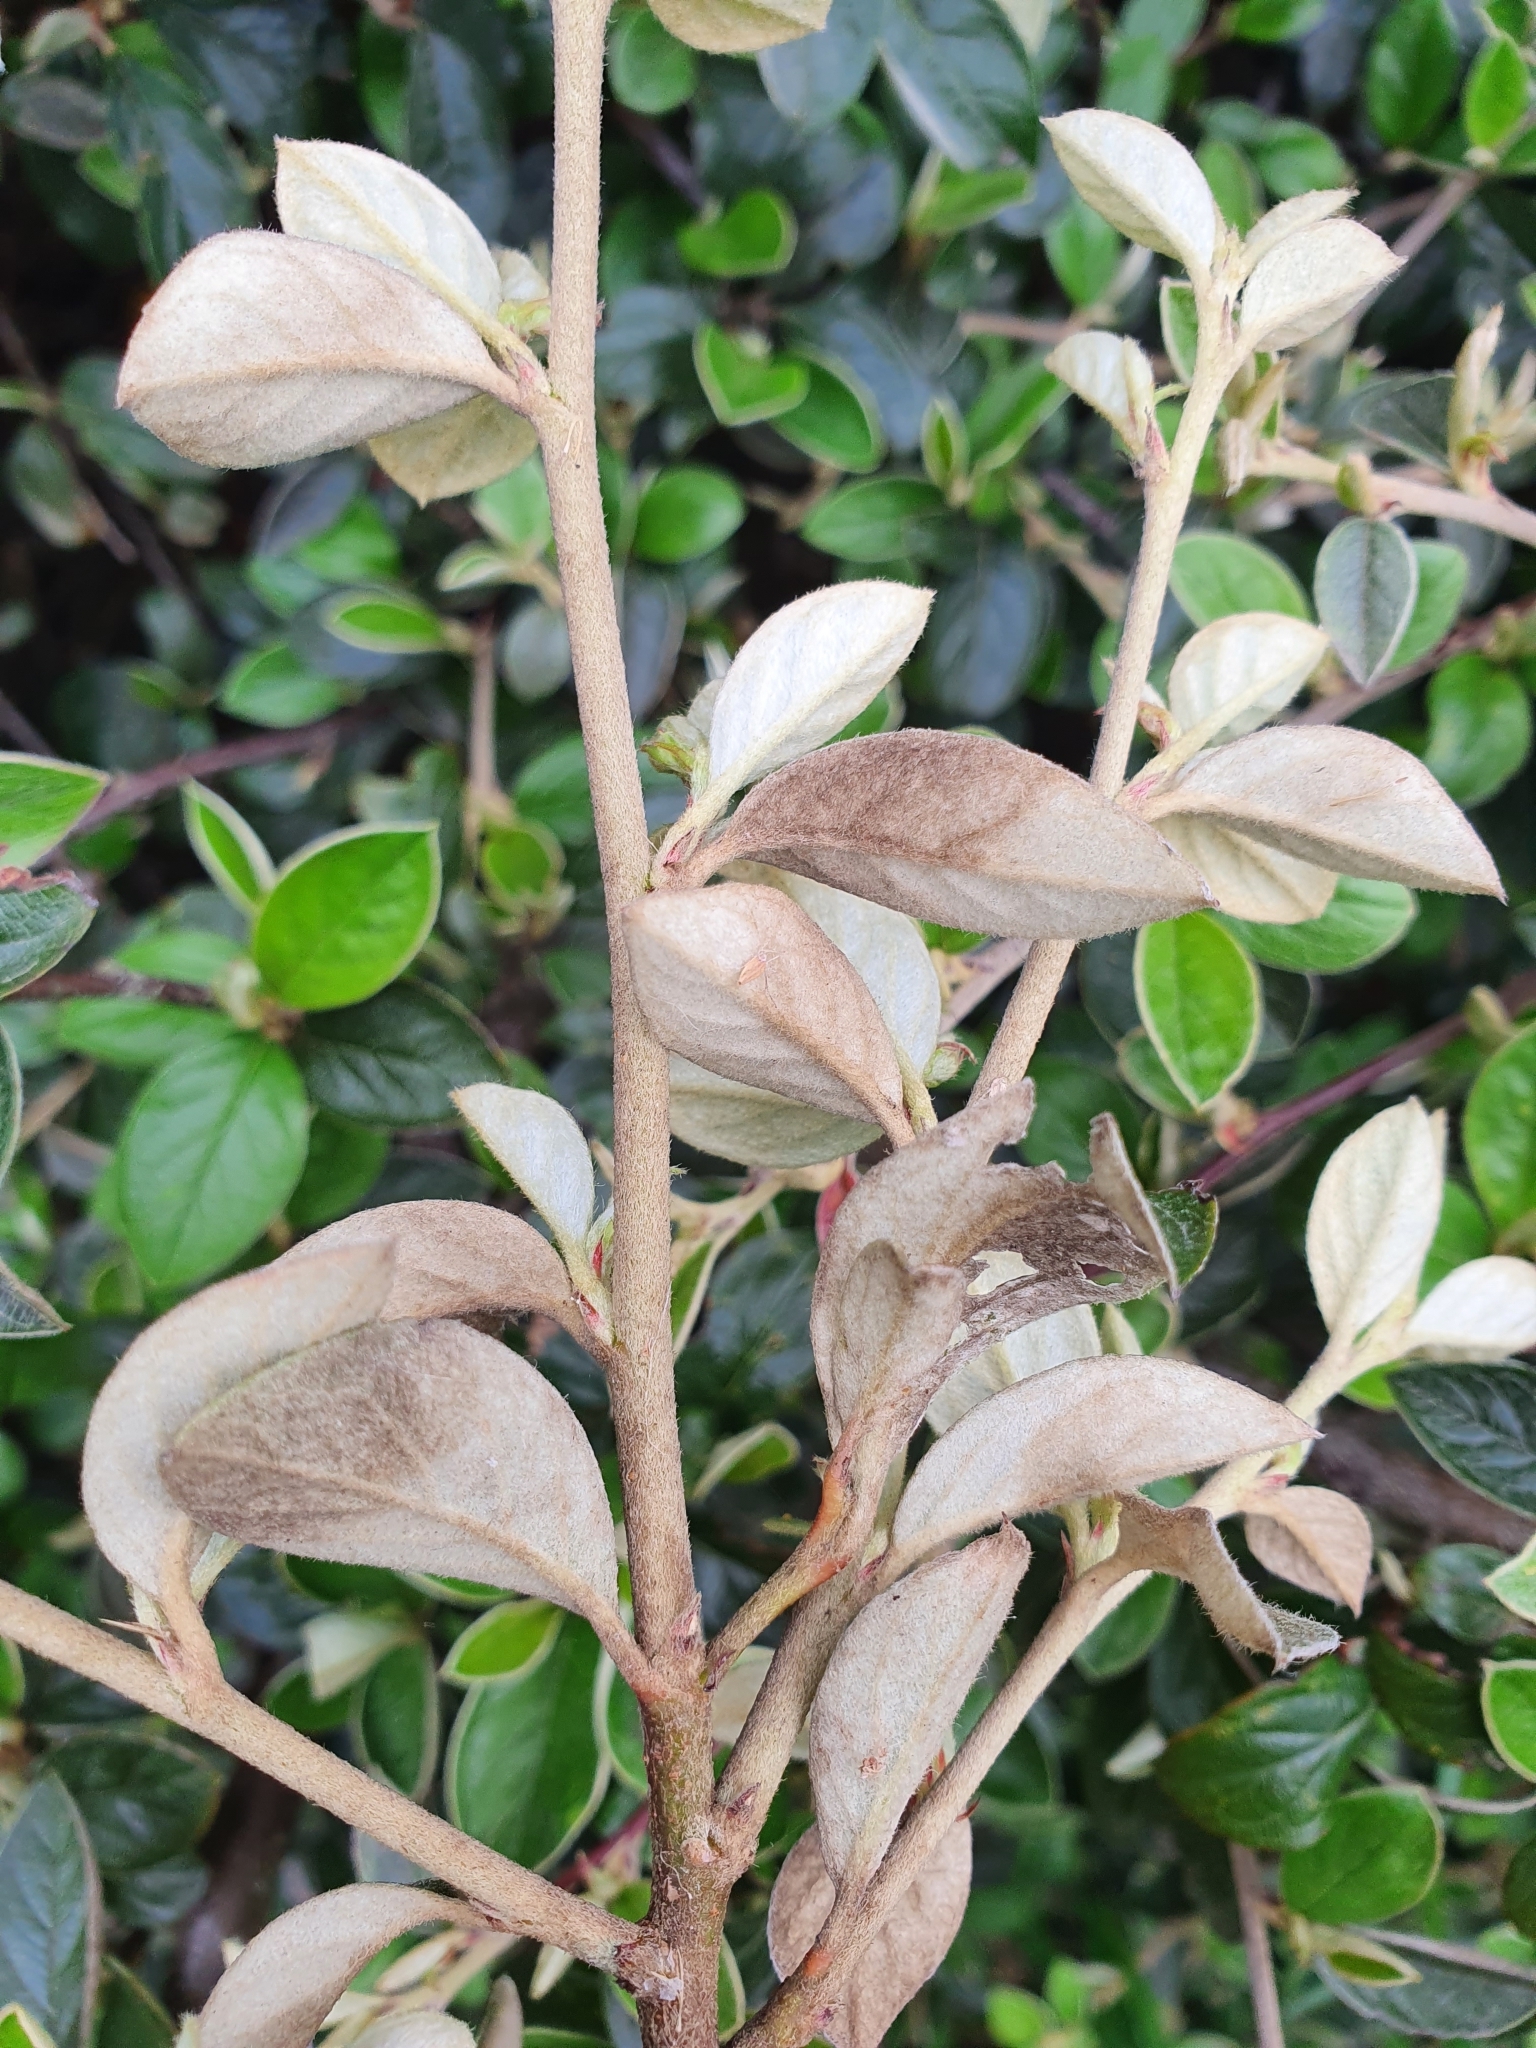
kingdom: Plantae
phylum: Tracheophyta
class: Magnoliopsida
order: Rosales
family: Rosaceae
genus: Cotoneaster
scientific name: Cotoneaster franchetii
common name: Franchet's cotoneaster
